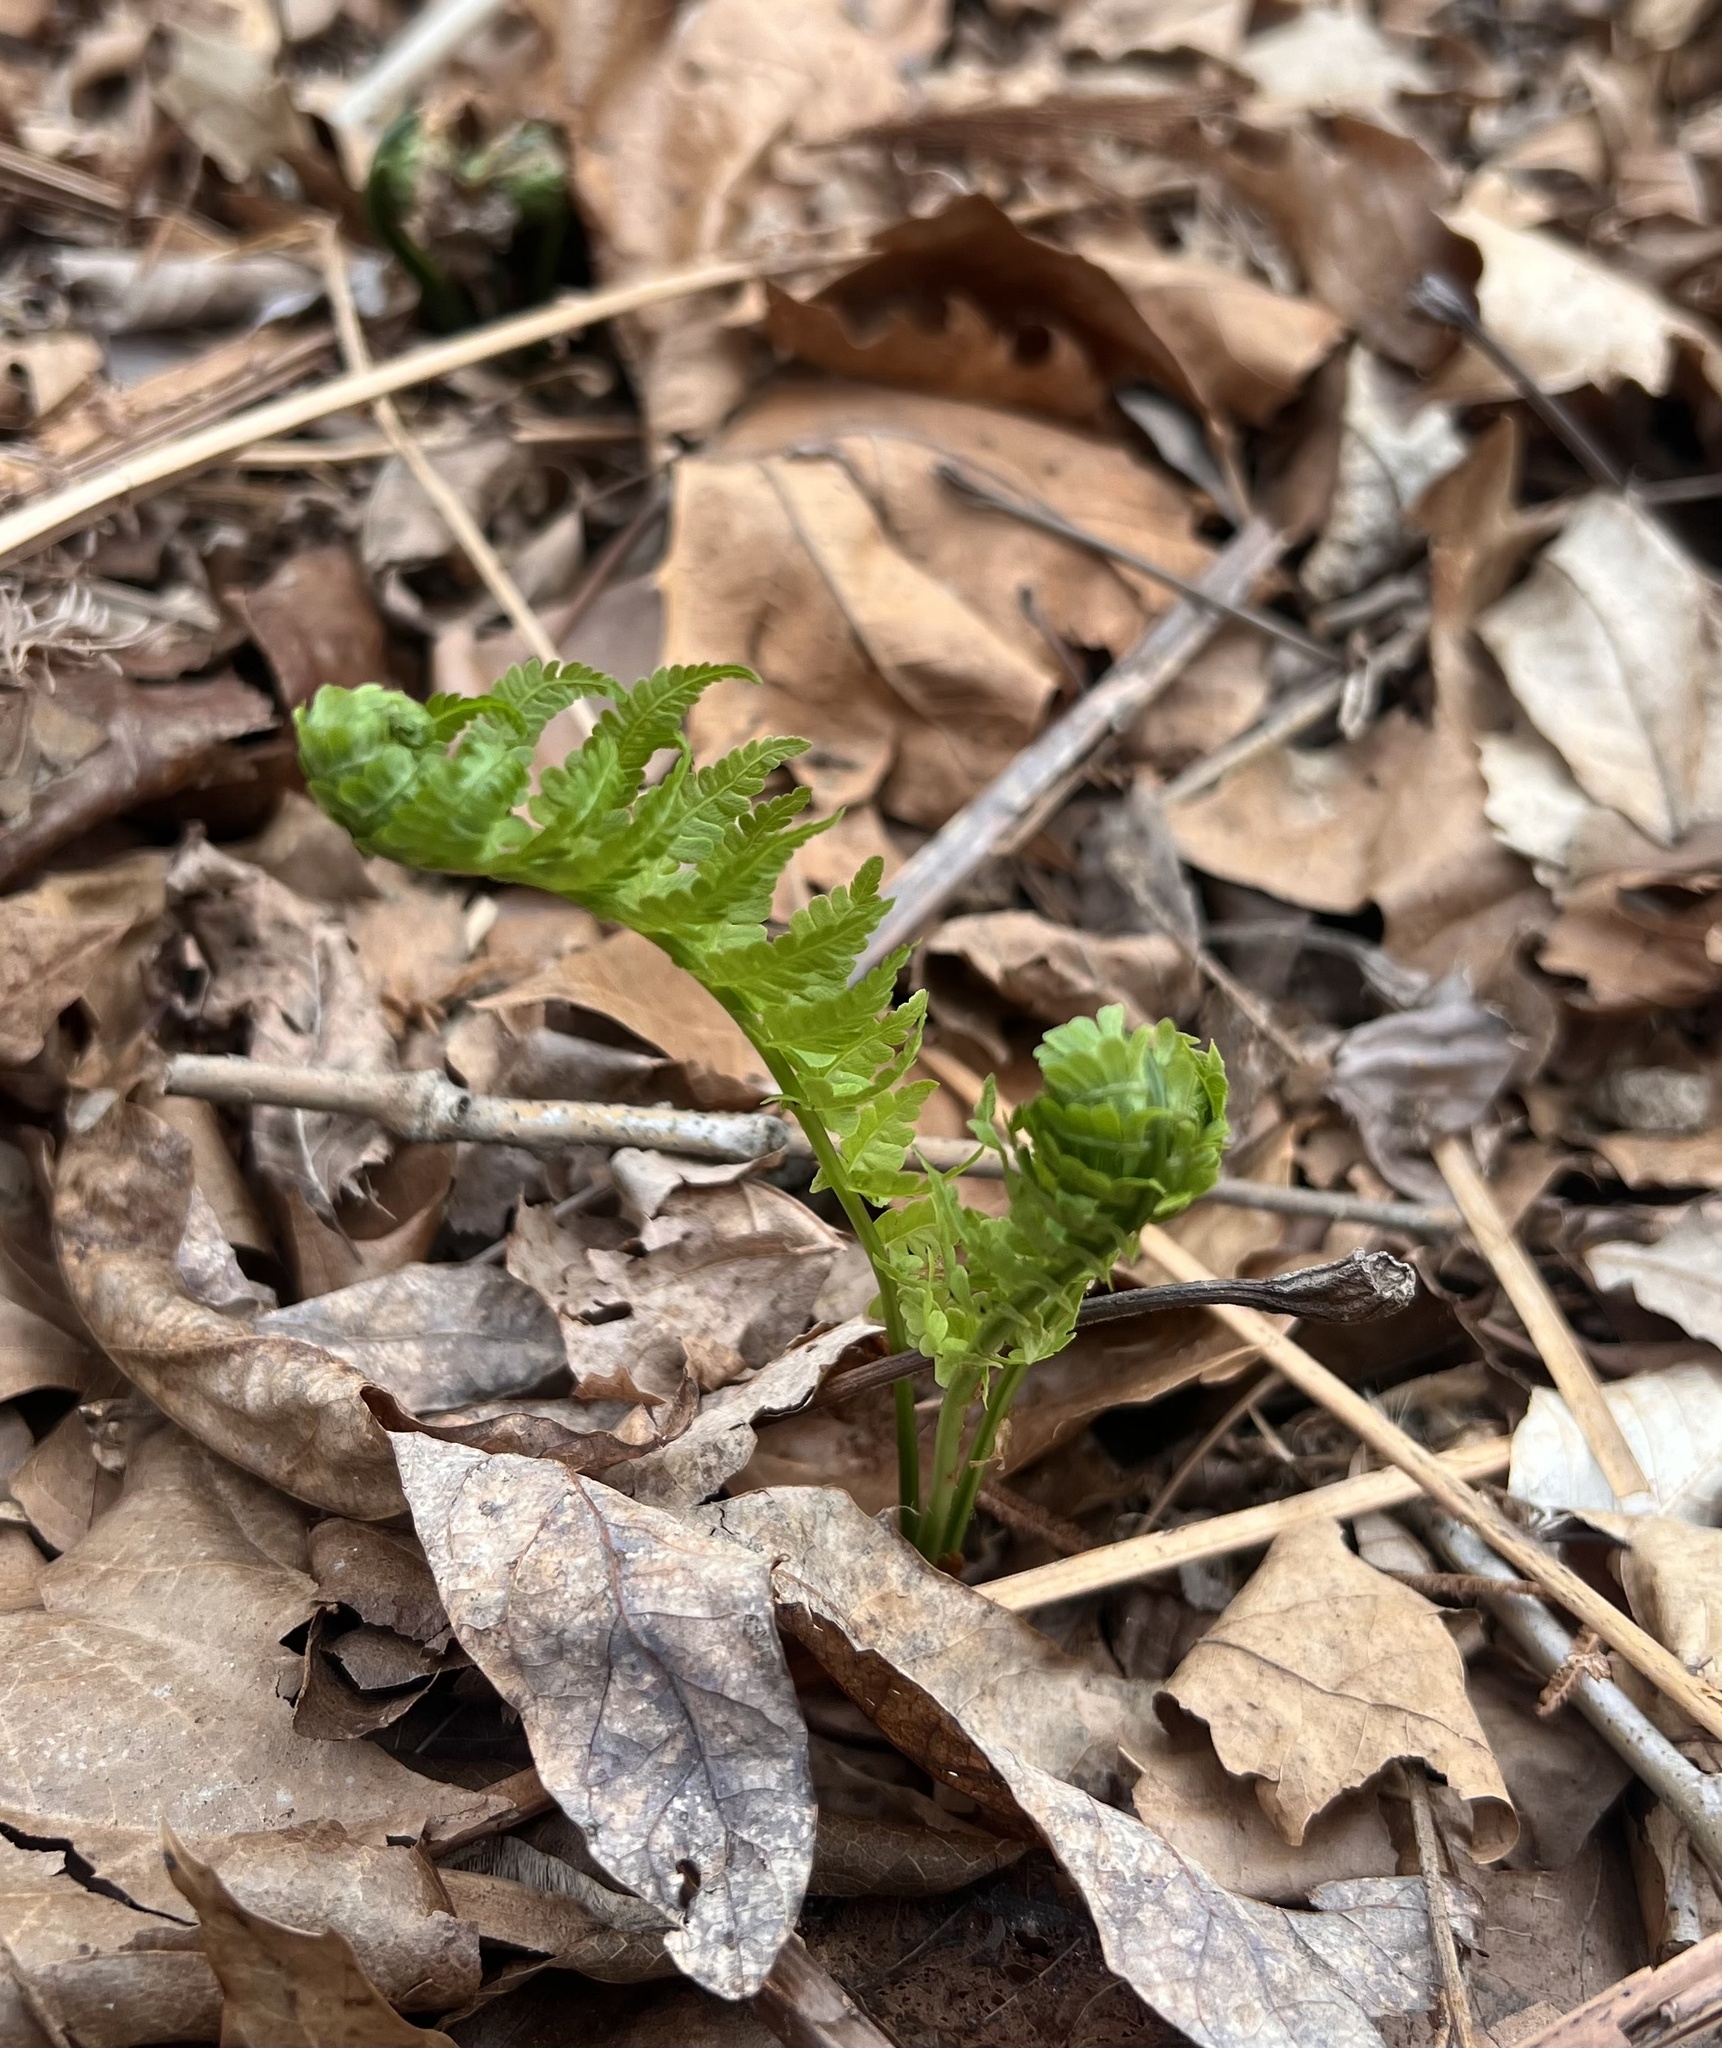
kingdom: Plantae
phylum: Tracheophyta
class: Polypodiopsida
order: Polypodiales
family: Onocleaceae
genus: Matteuccia
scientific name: Matteuccia struthiopteris
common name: Ostrich fern
